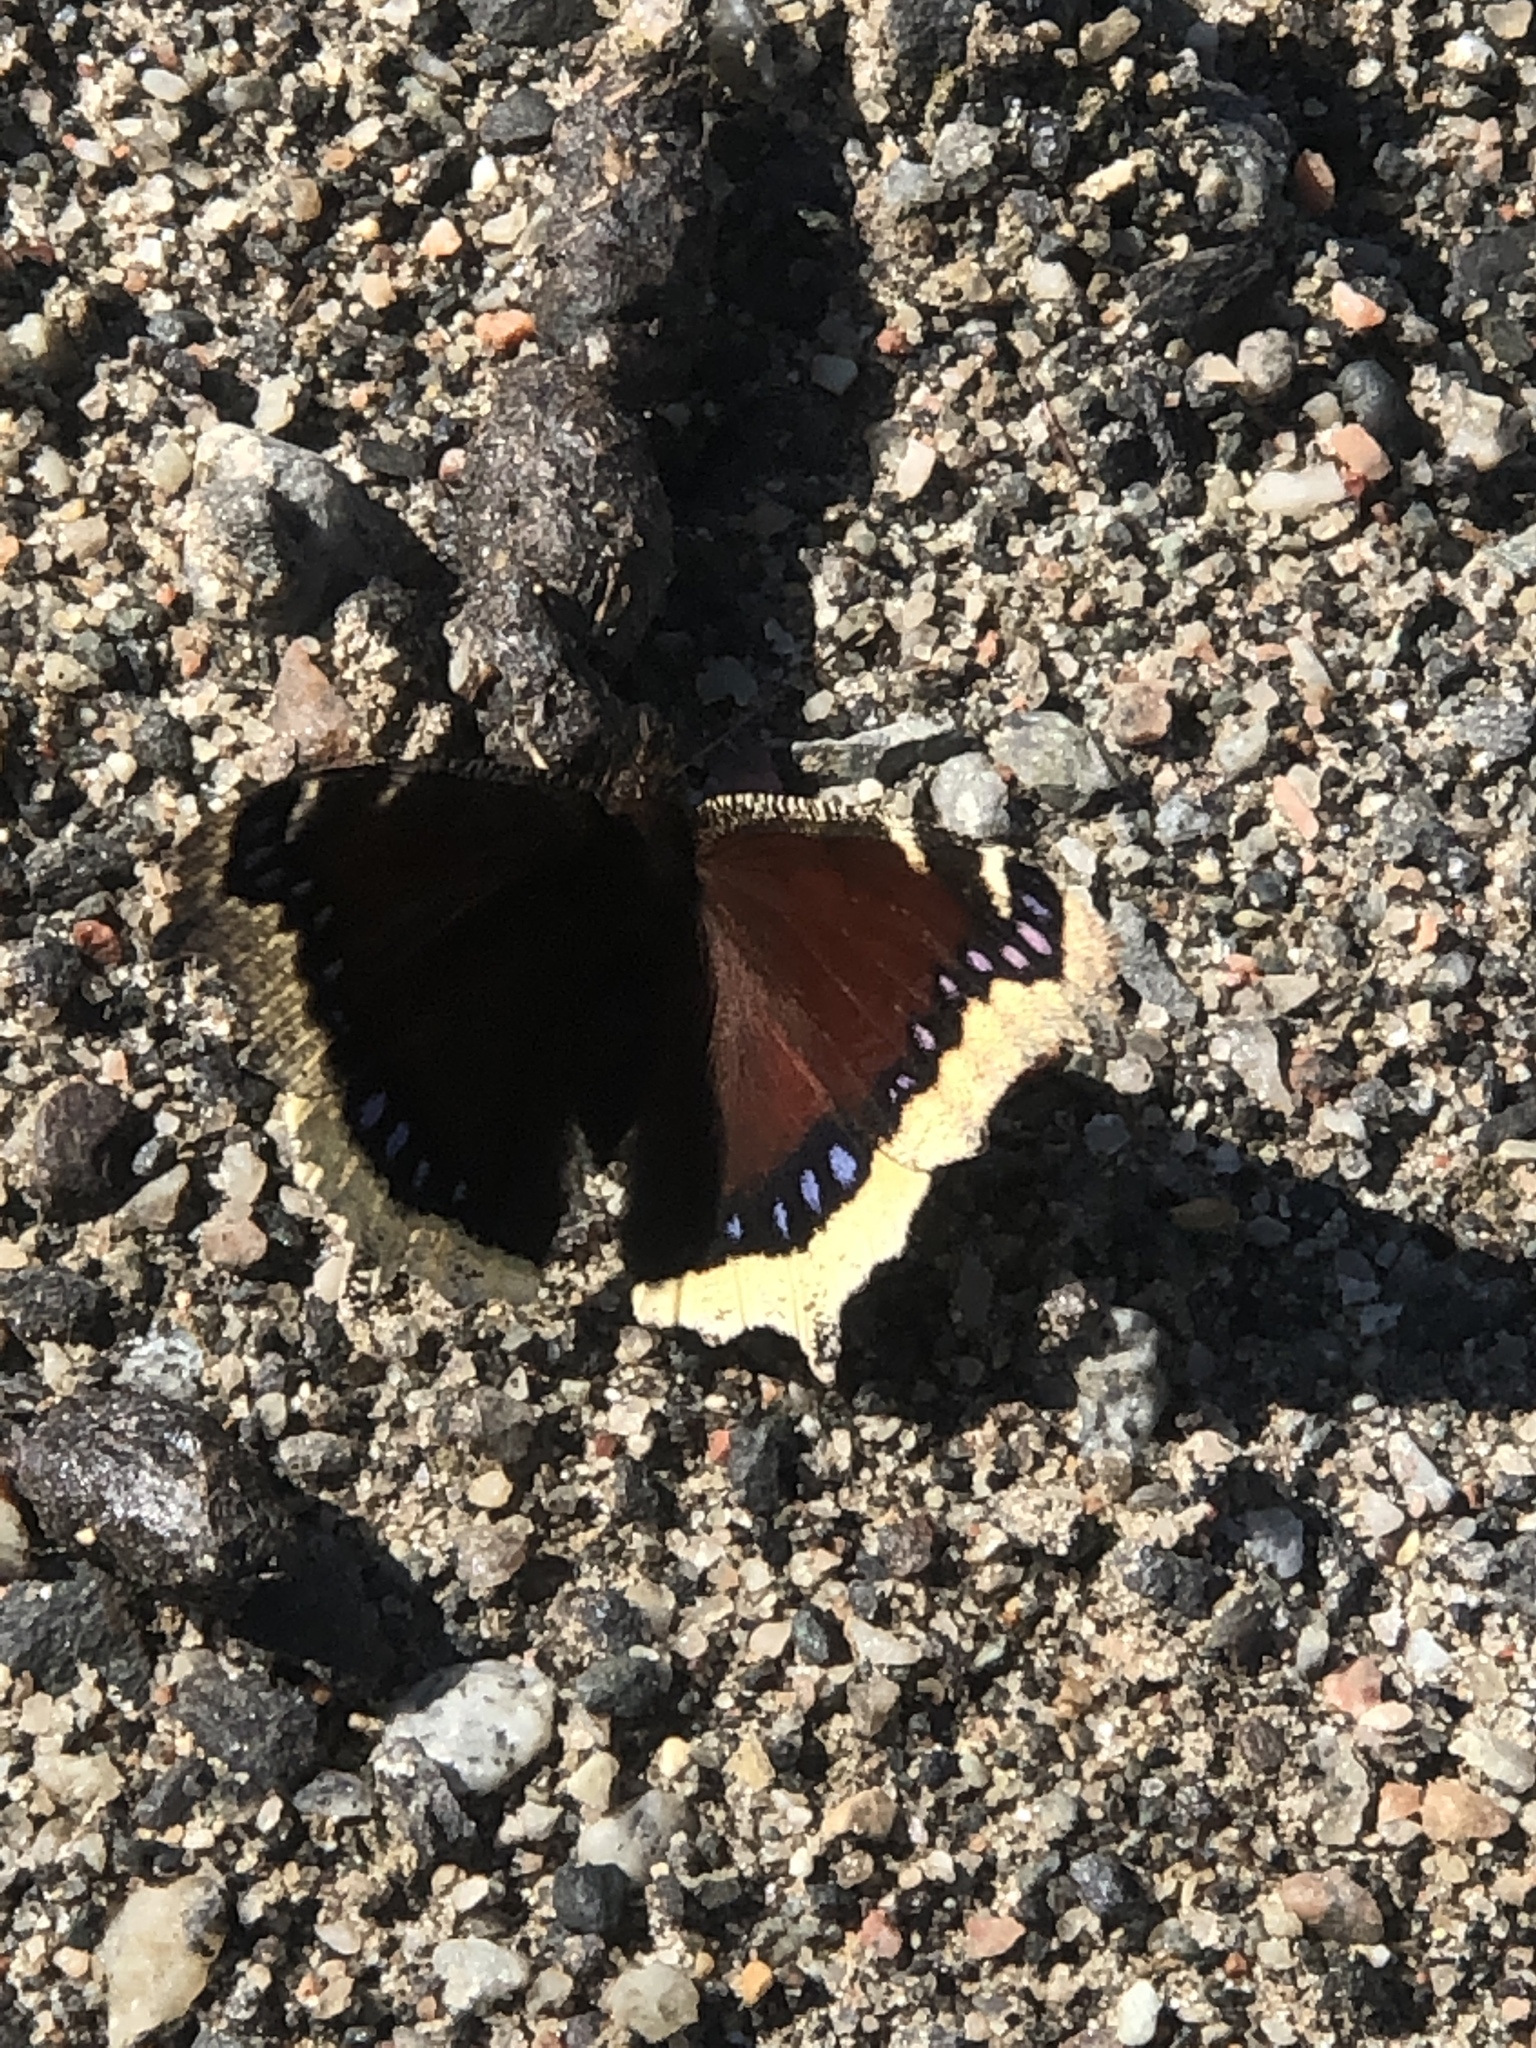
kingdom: Animalia
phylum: Arthropoda
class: Insecta
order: Lepidoptera
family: Nymphalidae
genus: Nymphalis
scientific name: Nymphalis antiopa
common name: Camberwell beauty
